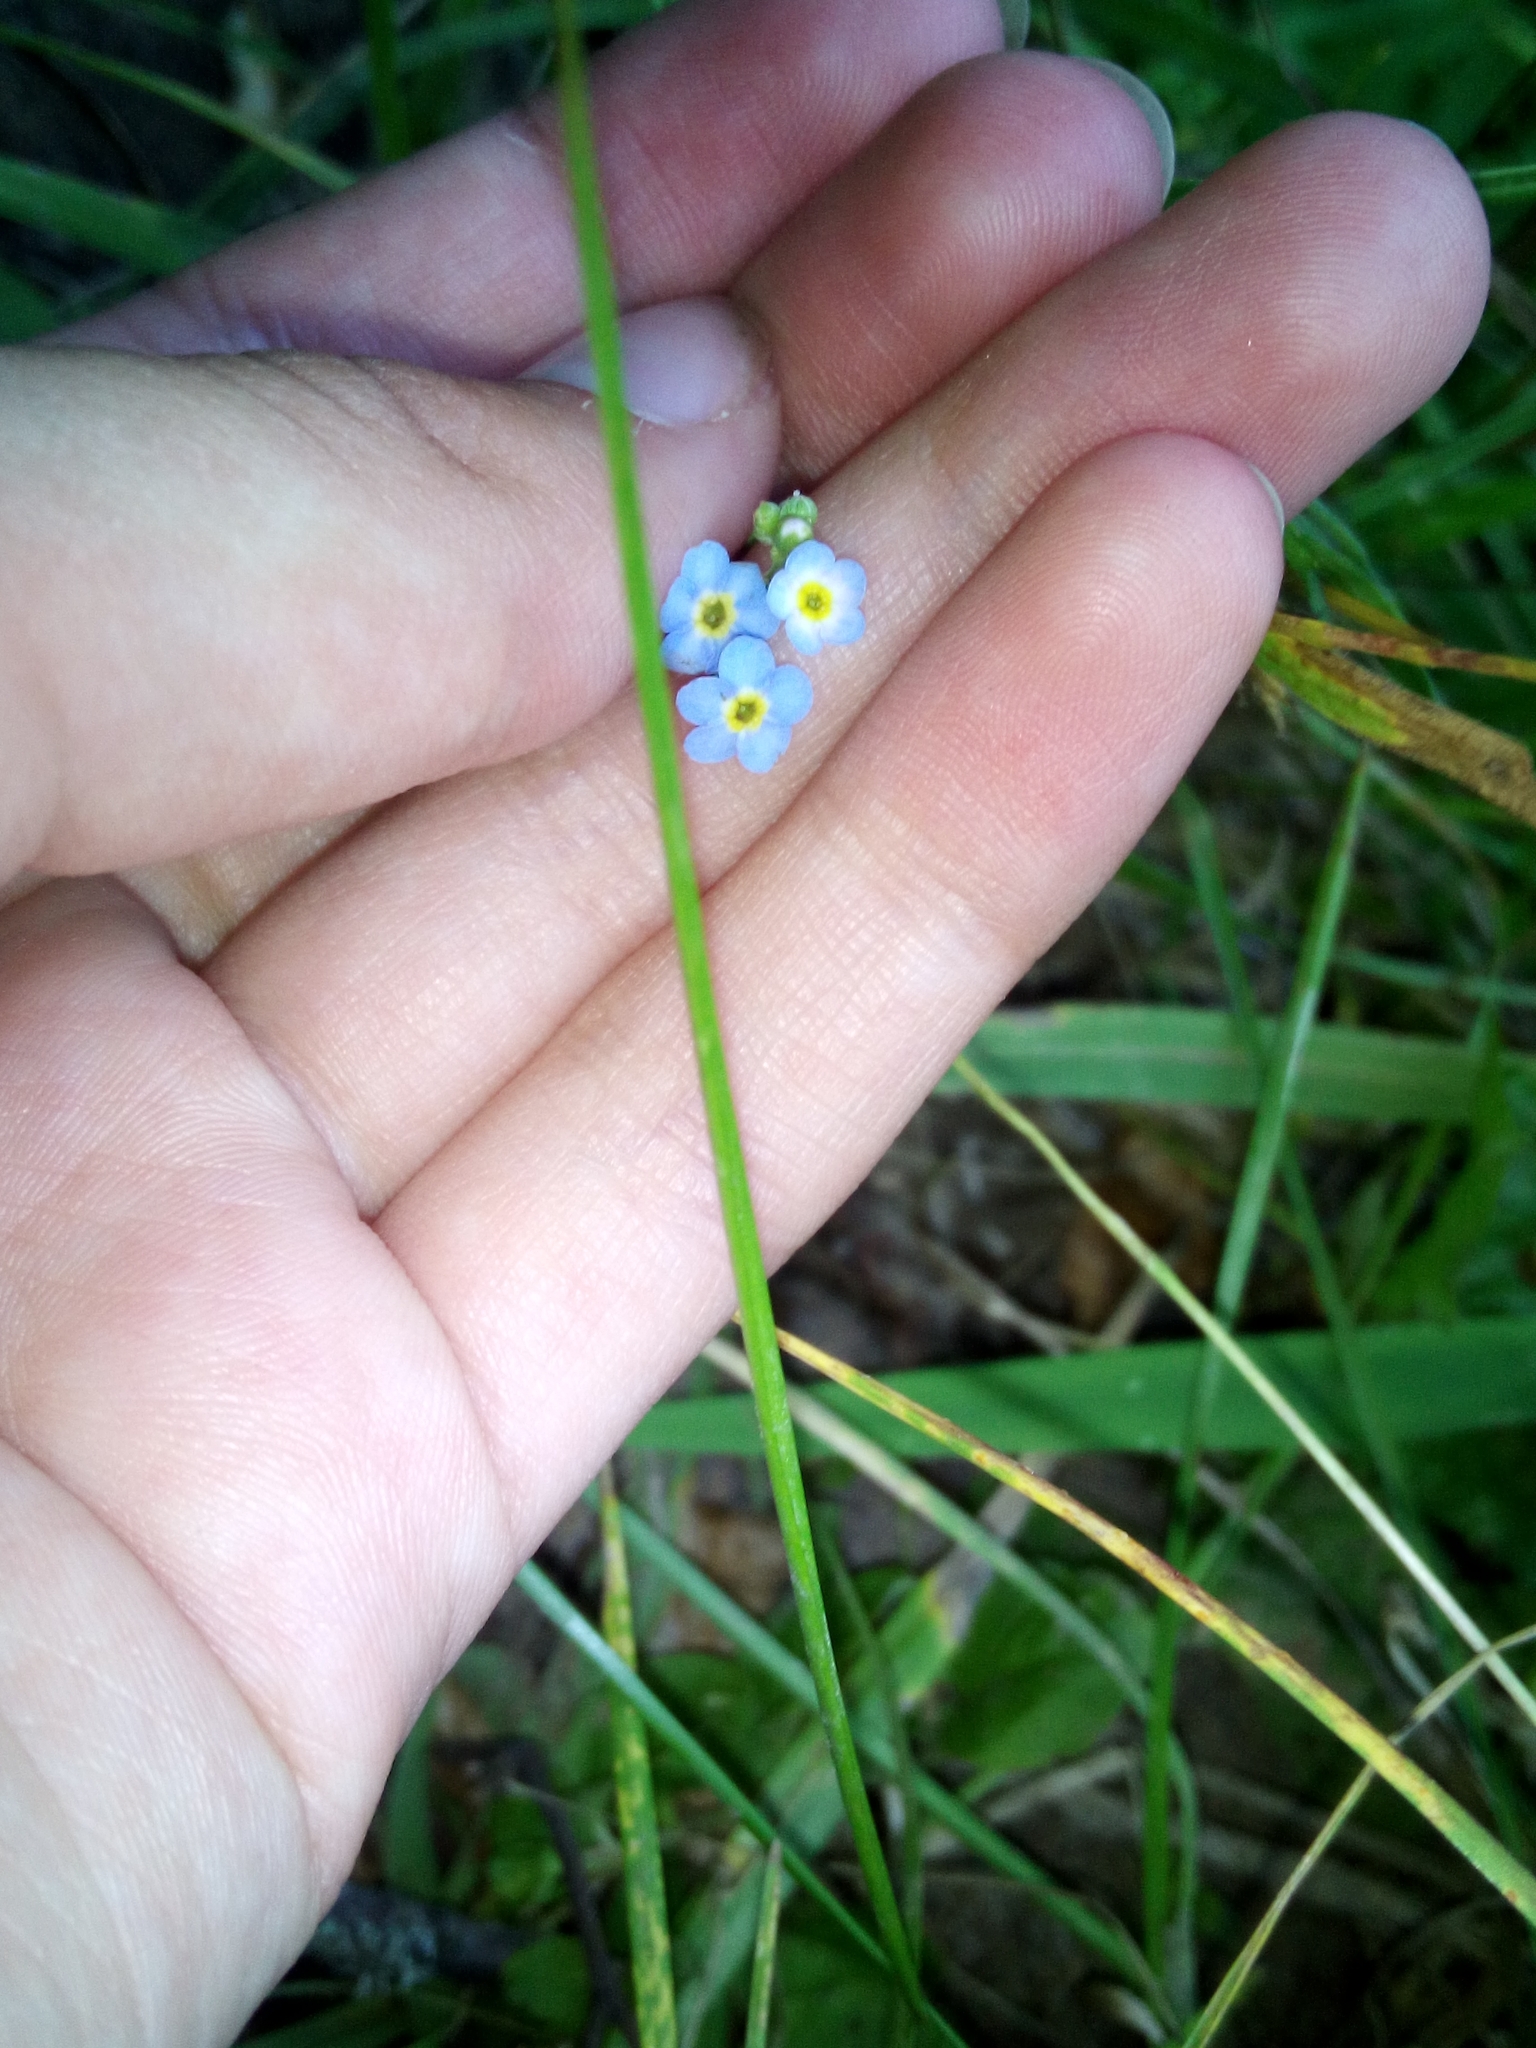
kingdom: Plantae
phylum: Tracheophyta
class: Magnoliopsida
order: Boraginales
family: Boraginaceae
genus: Myosotis
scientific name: Myosotis scorpioides
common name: Water forget-me-not
